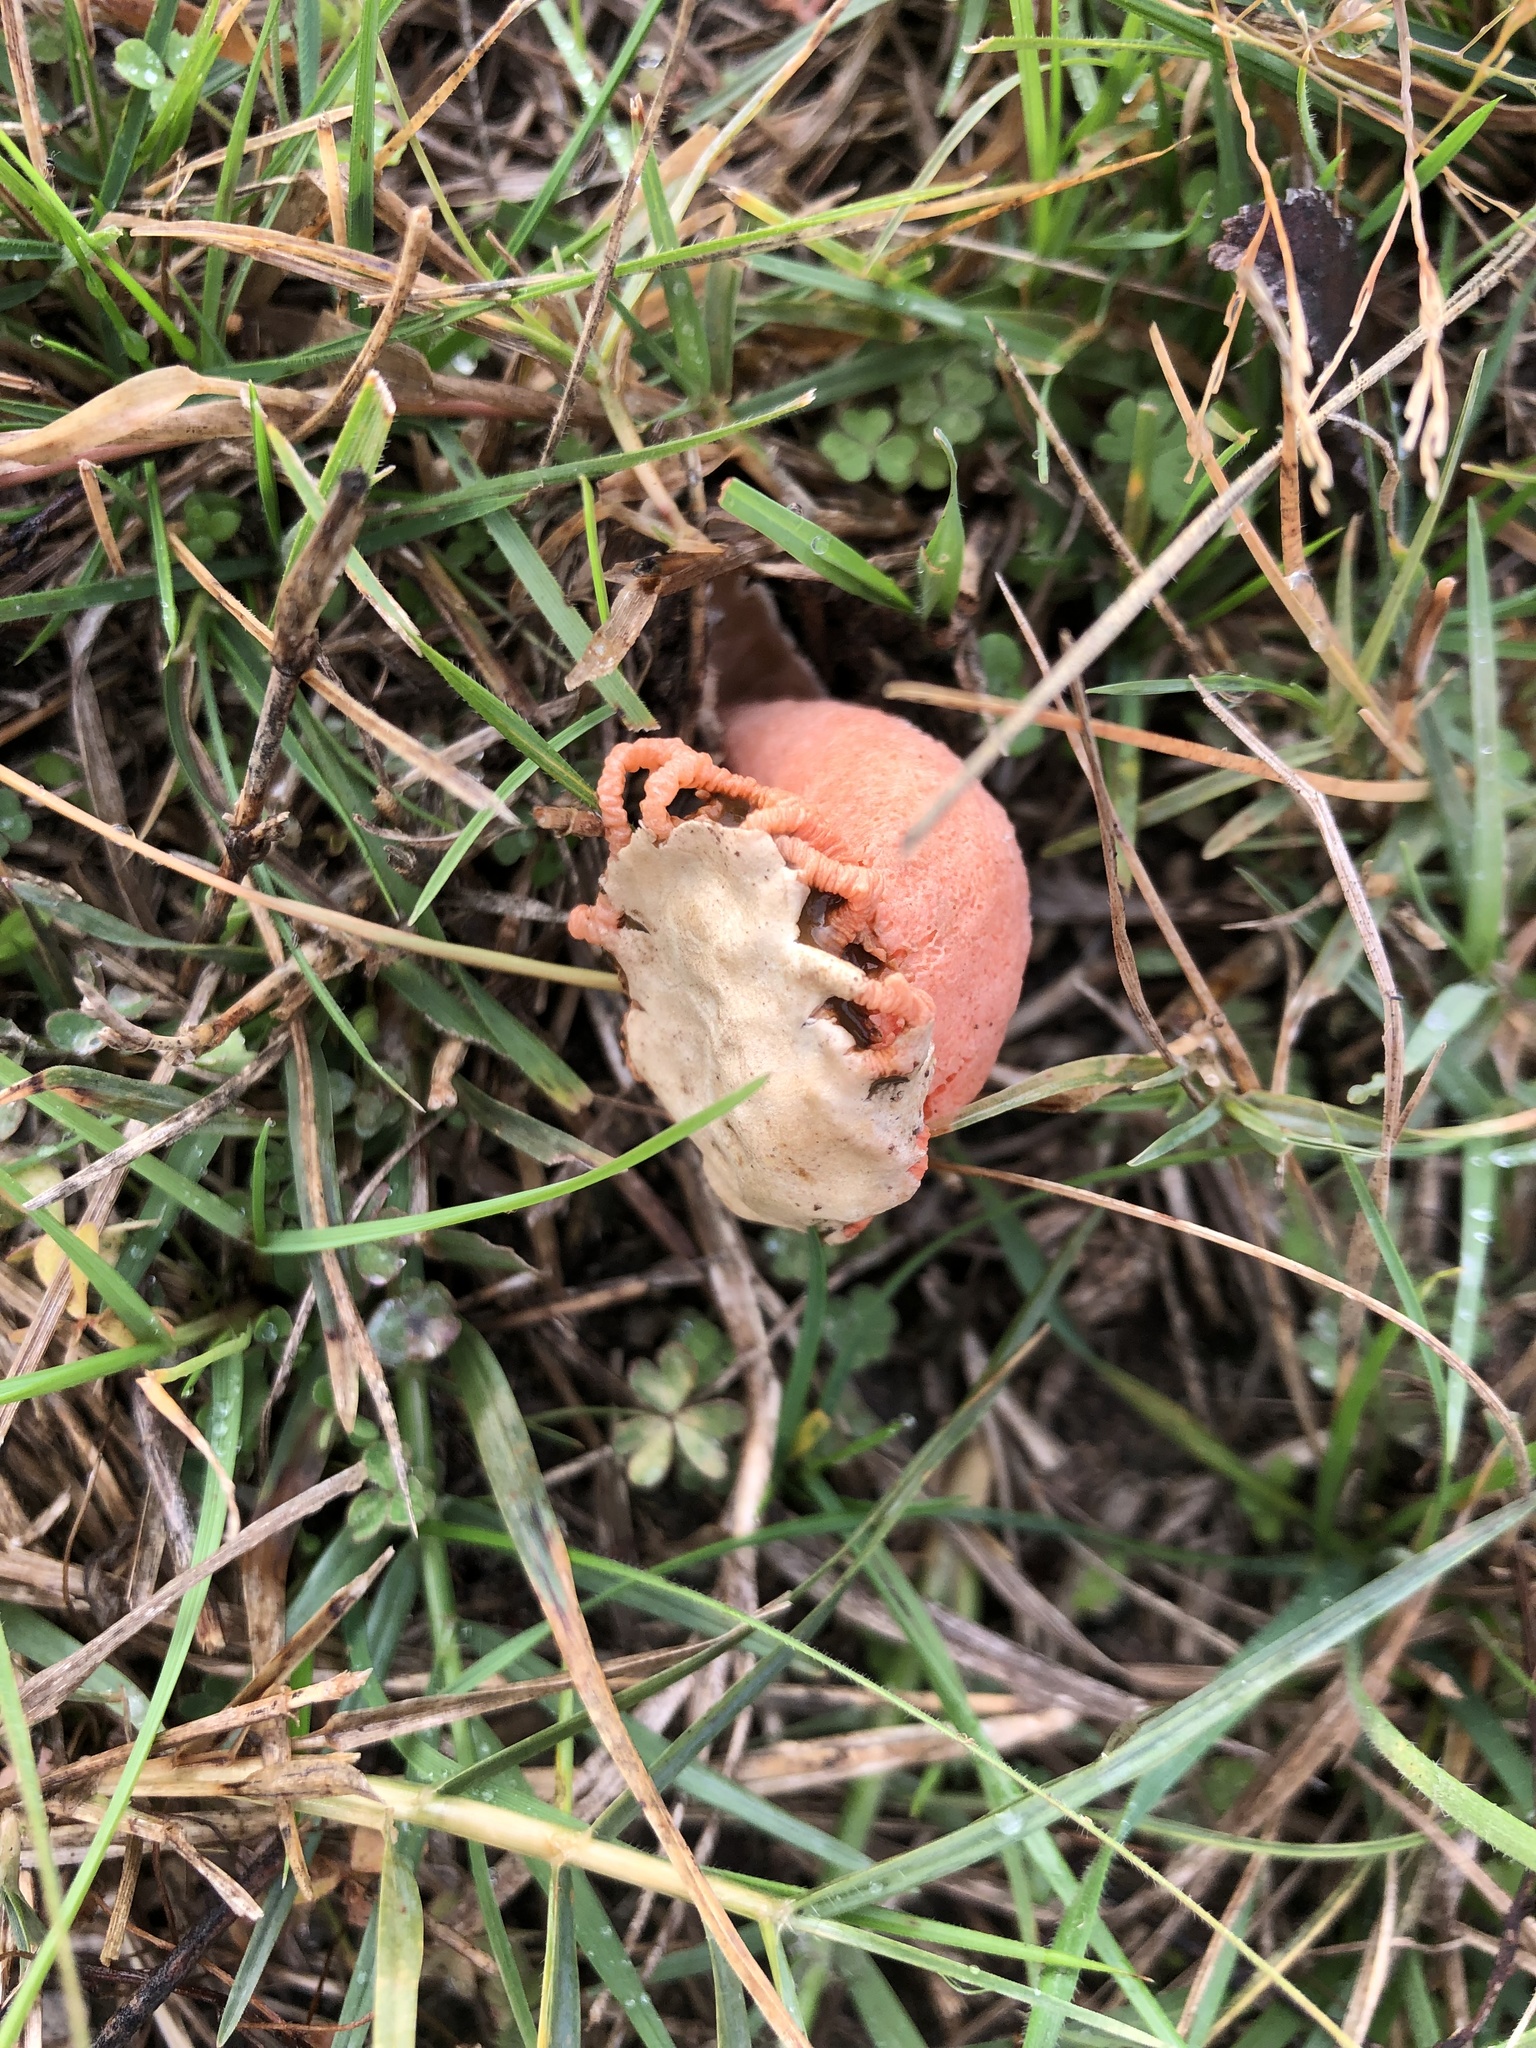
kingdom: Fungi
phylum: Basidiomycota
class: Agaricomycetes
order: Phallales
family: Phallaceae
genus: Lysurus
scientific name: Lysurus periphragmoides
